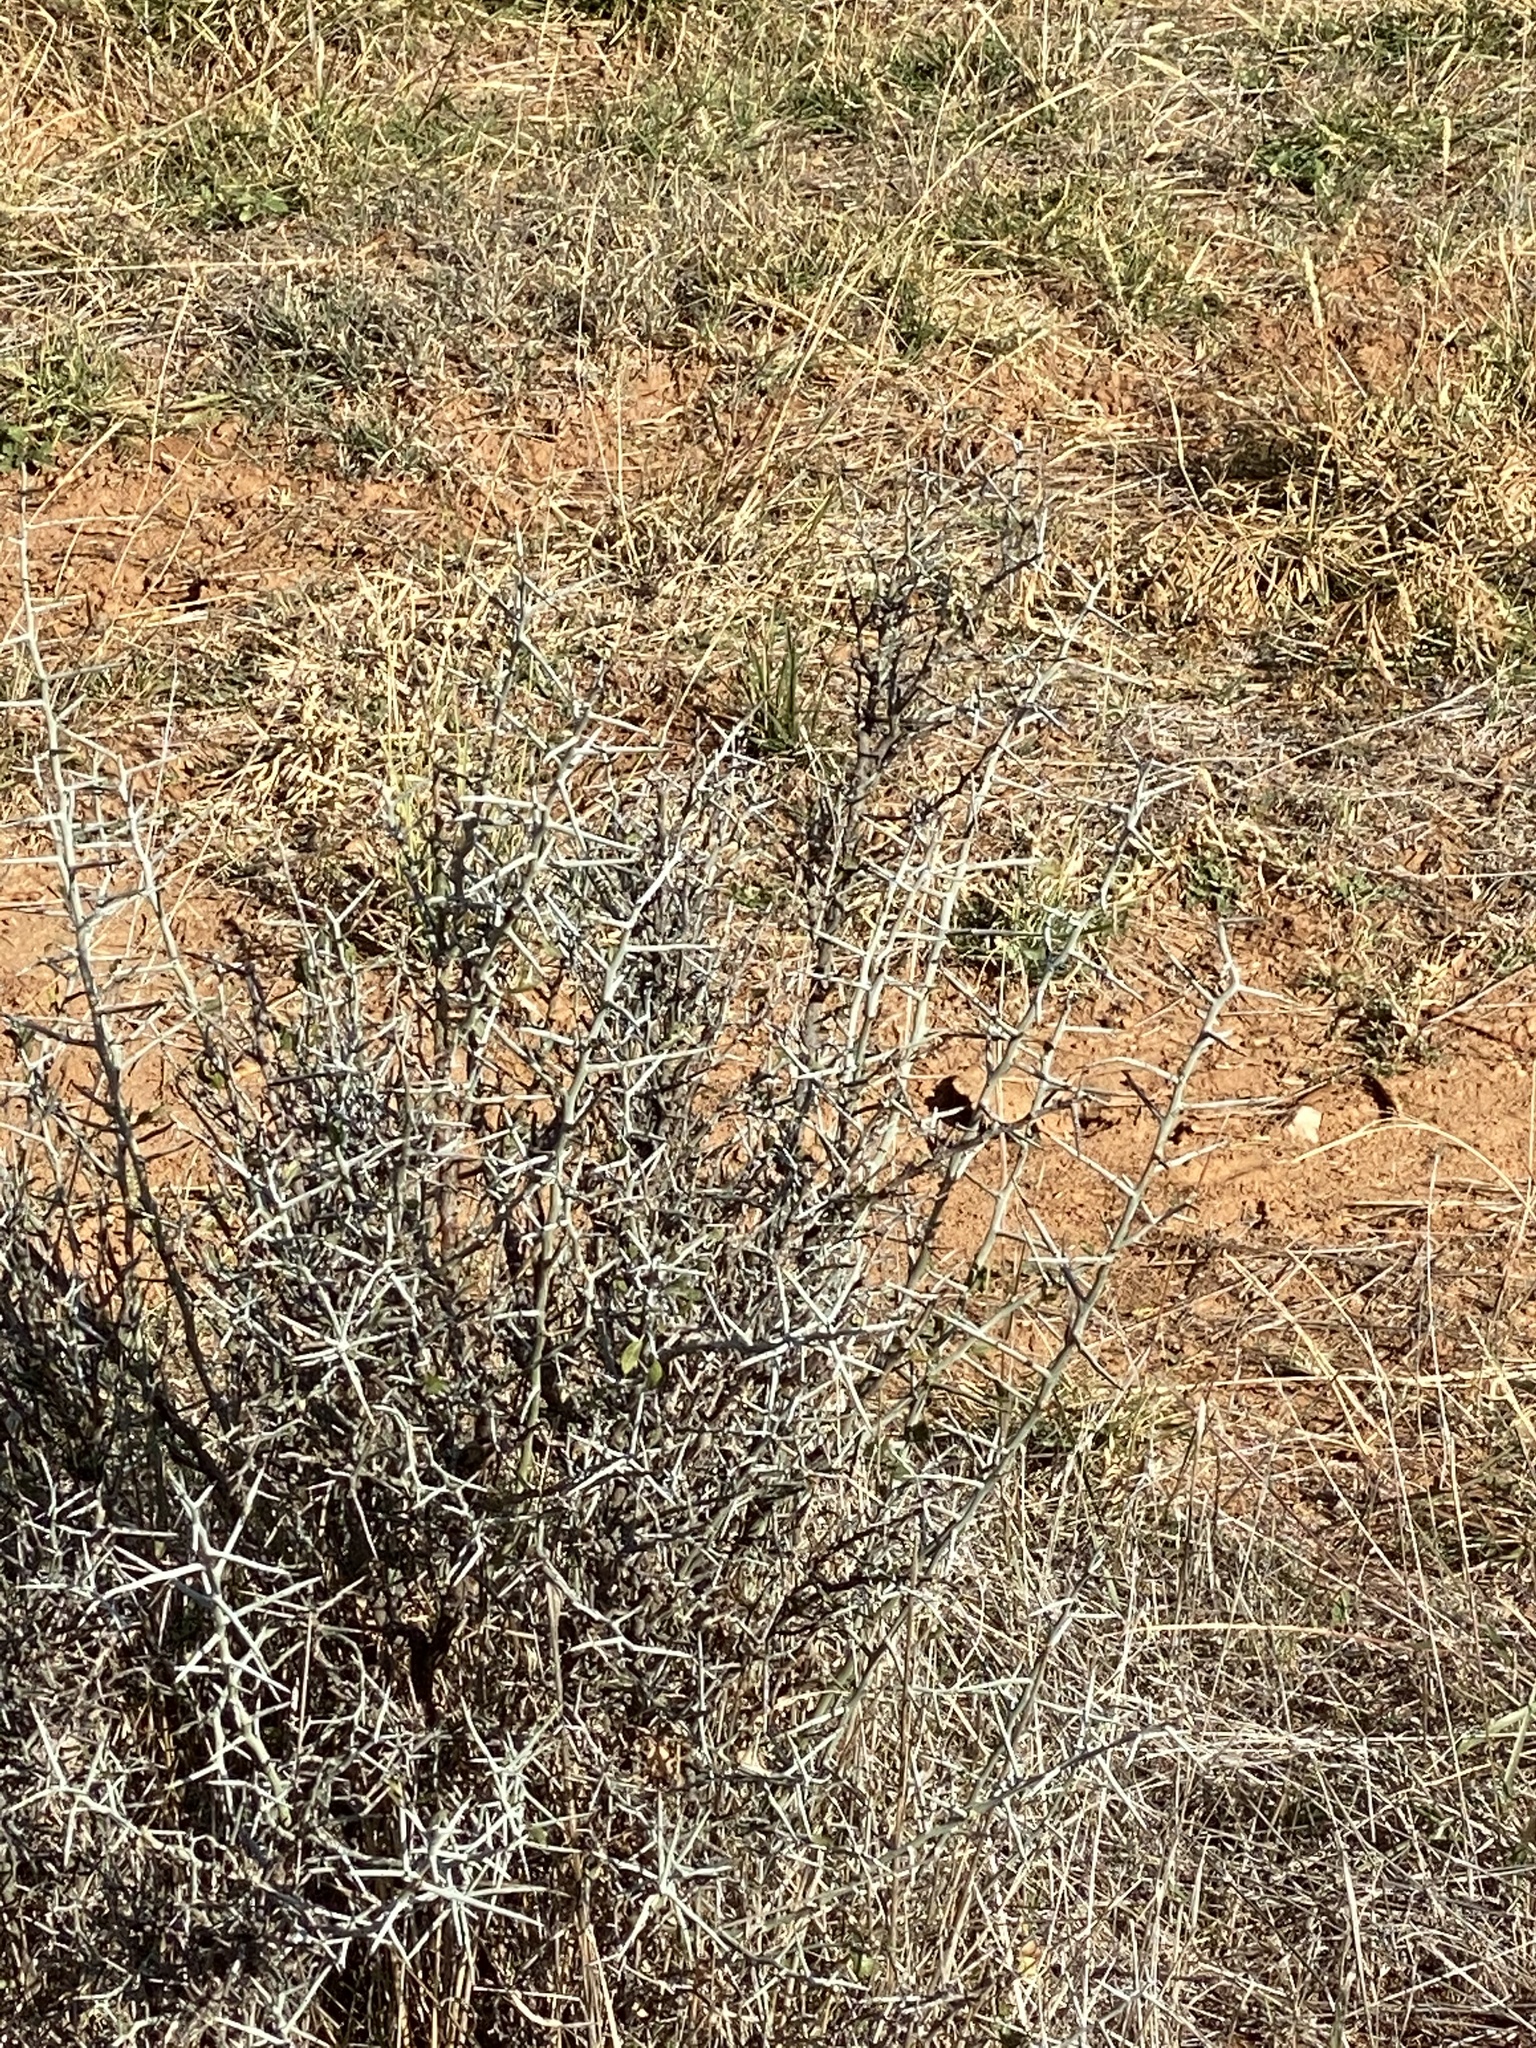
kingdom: Plantae
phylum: Tracheophyta
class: Magnoliopsida
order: Rosales
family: Rhamnaceae
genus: Sarcomphalus
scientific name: Sarcomphalus obtusifolius
